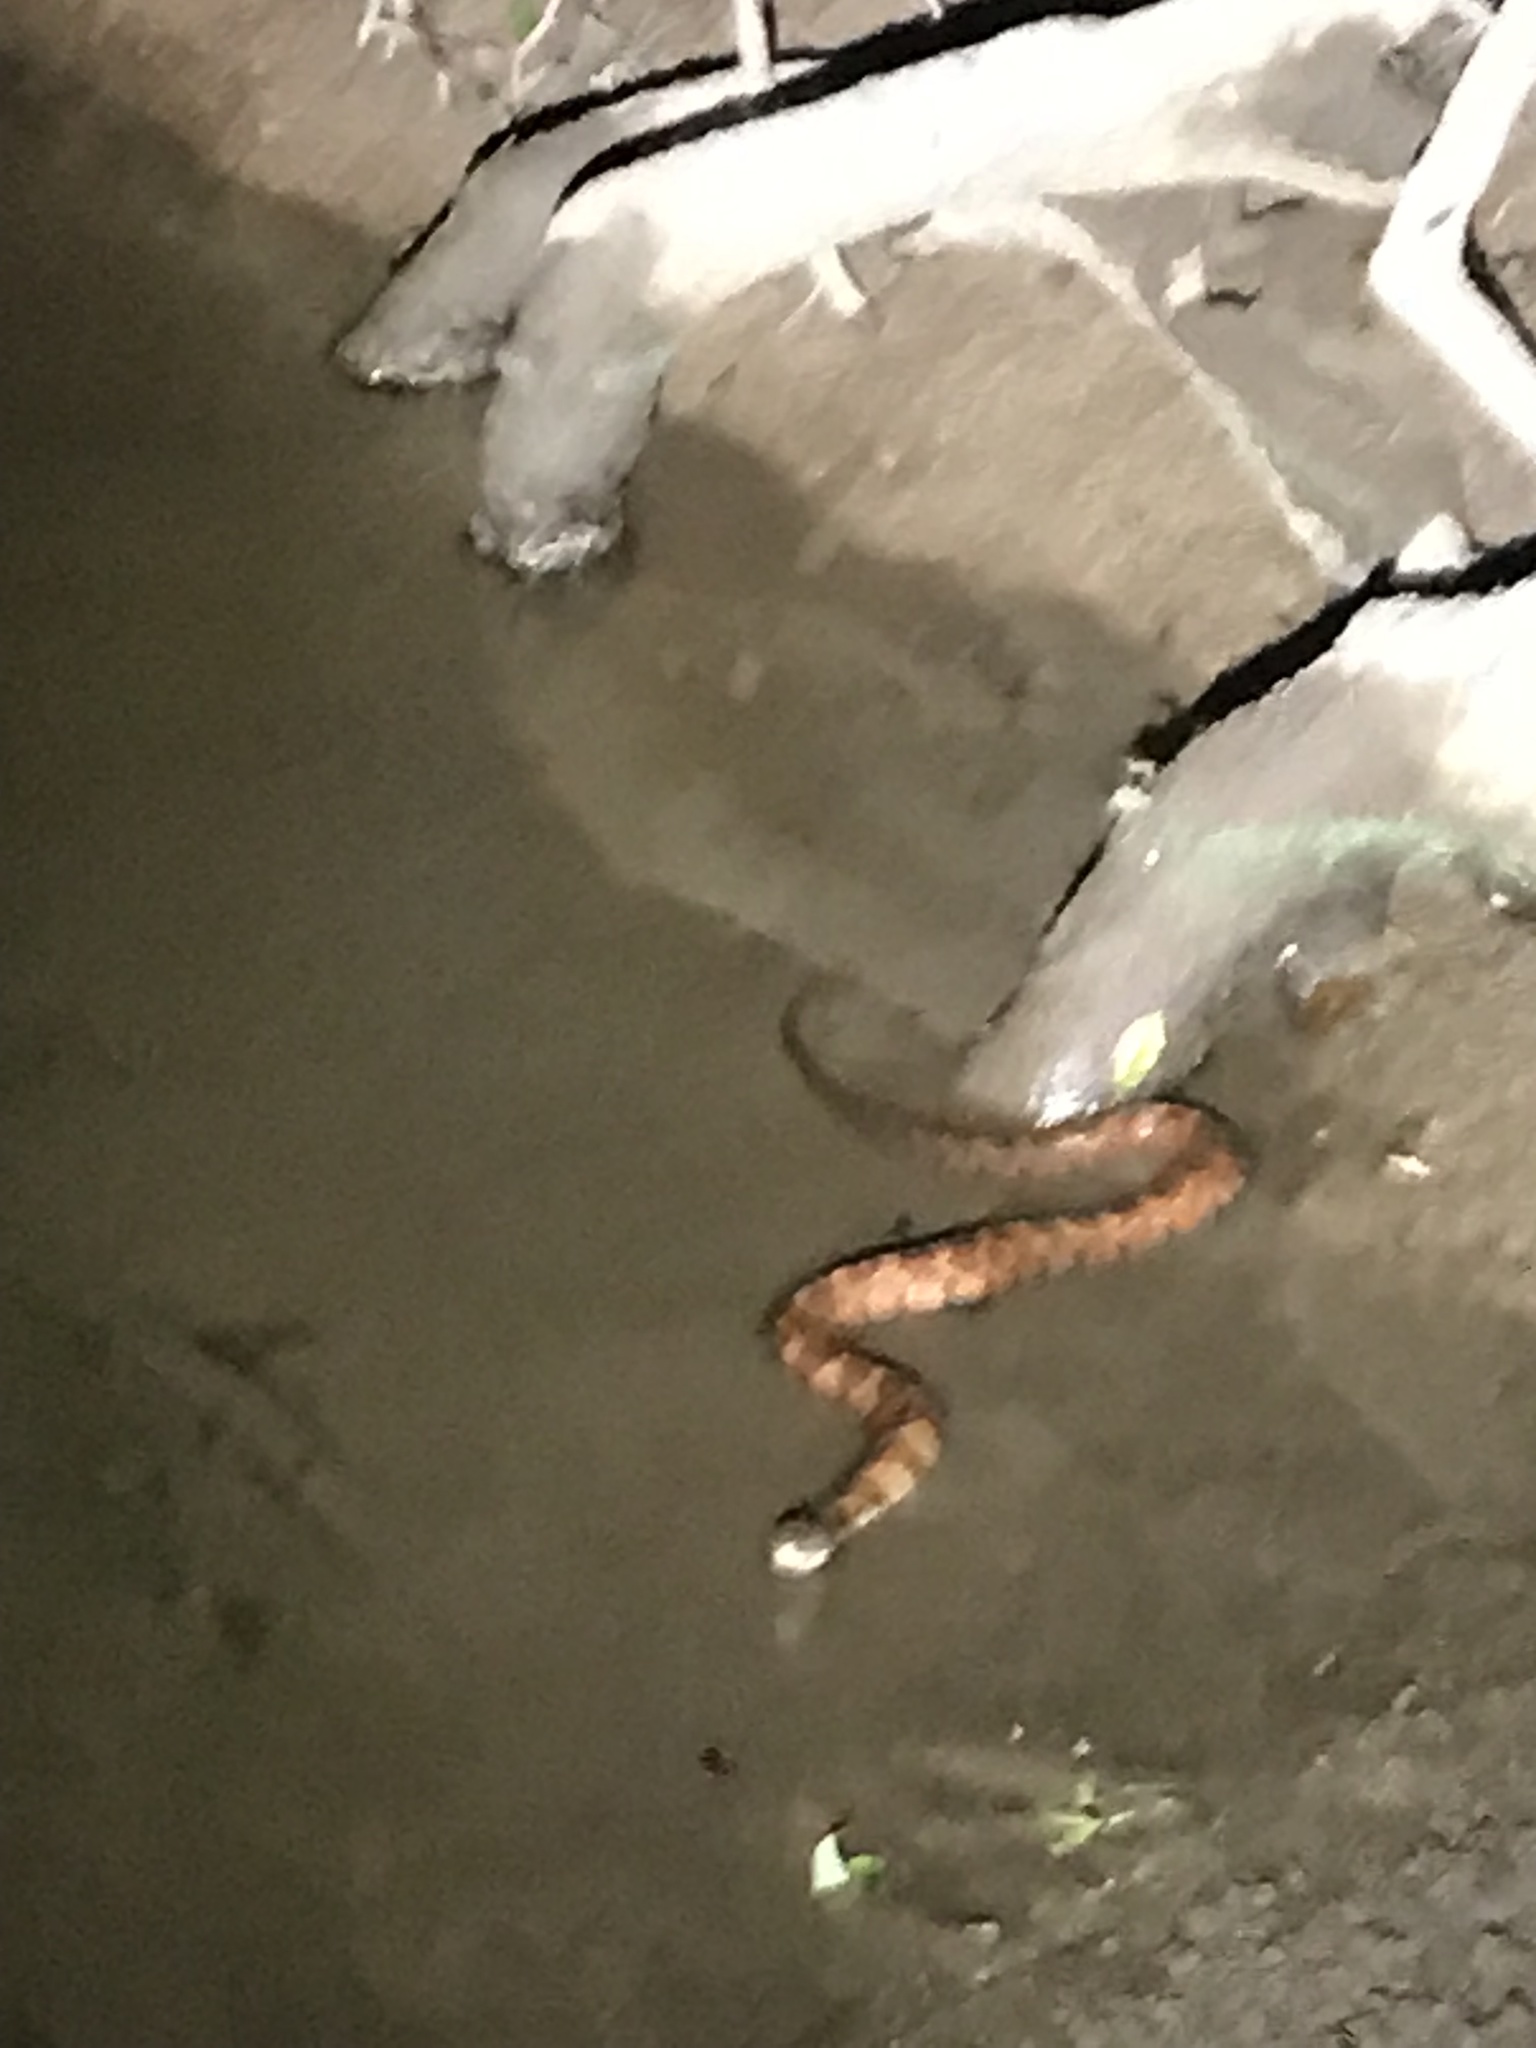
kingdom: Animalia
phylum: Chordata
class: Squamata
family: Colubridae
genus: Nerodia
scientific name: Nerodia sipedon
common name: Northern water snake
